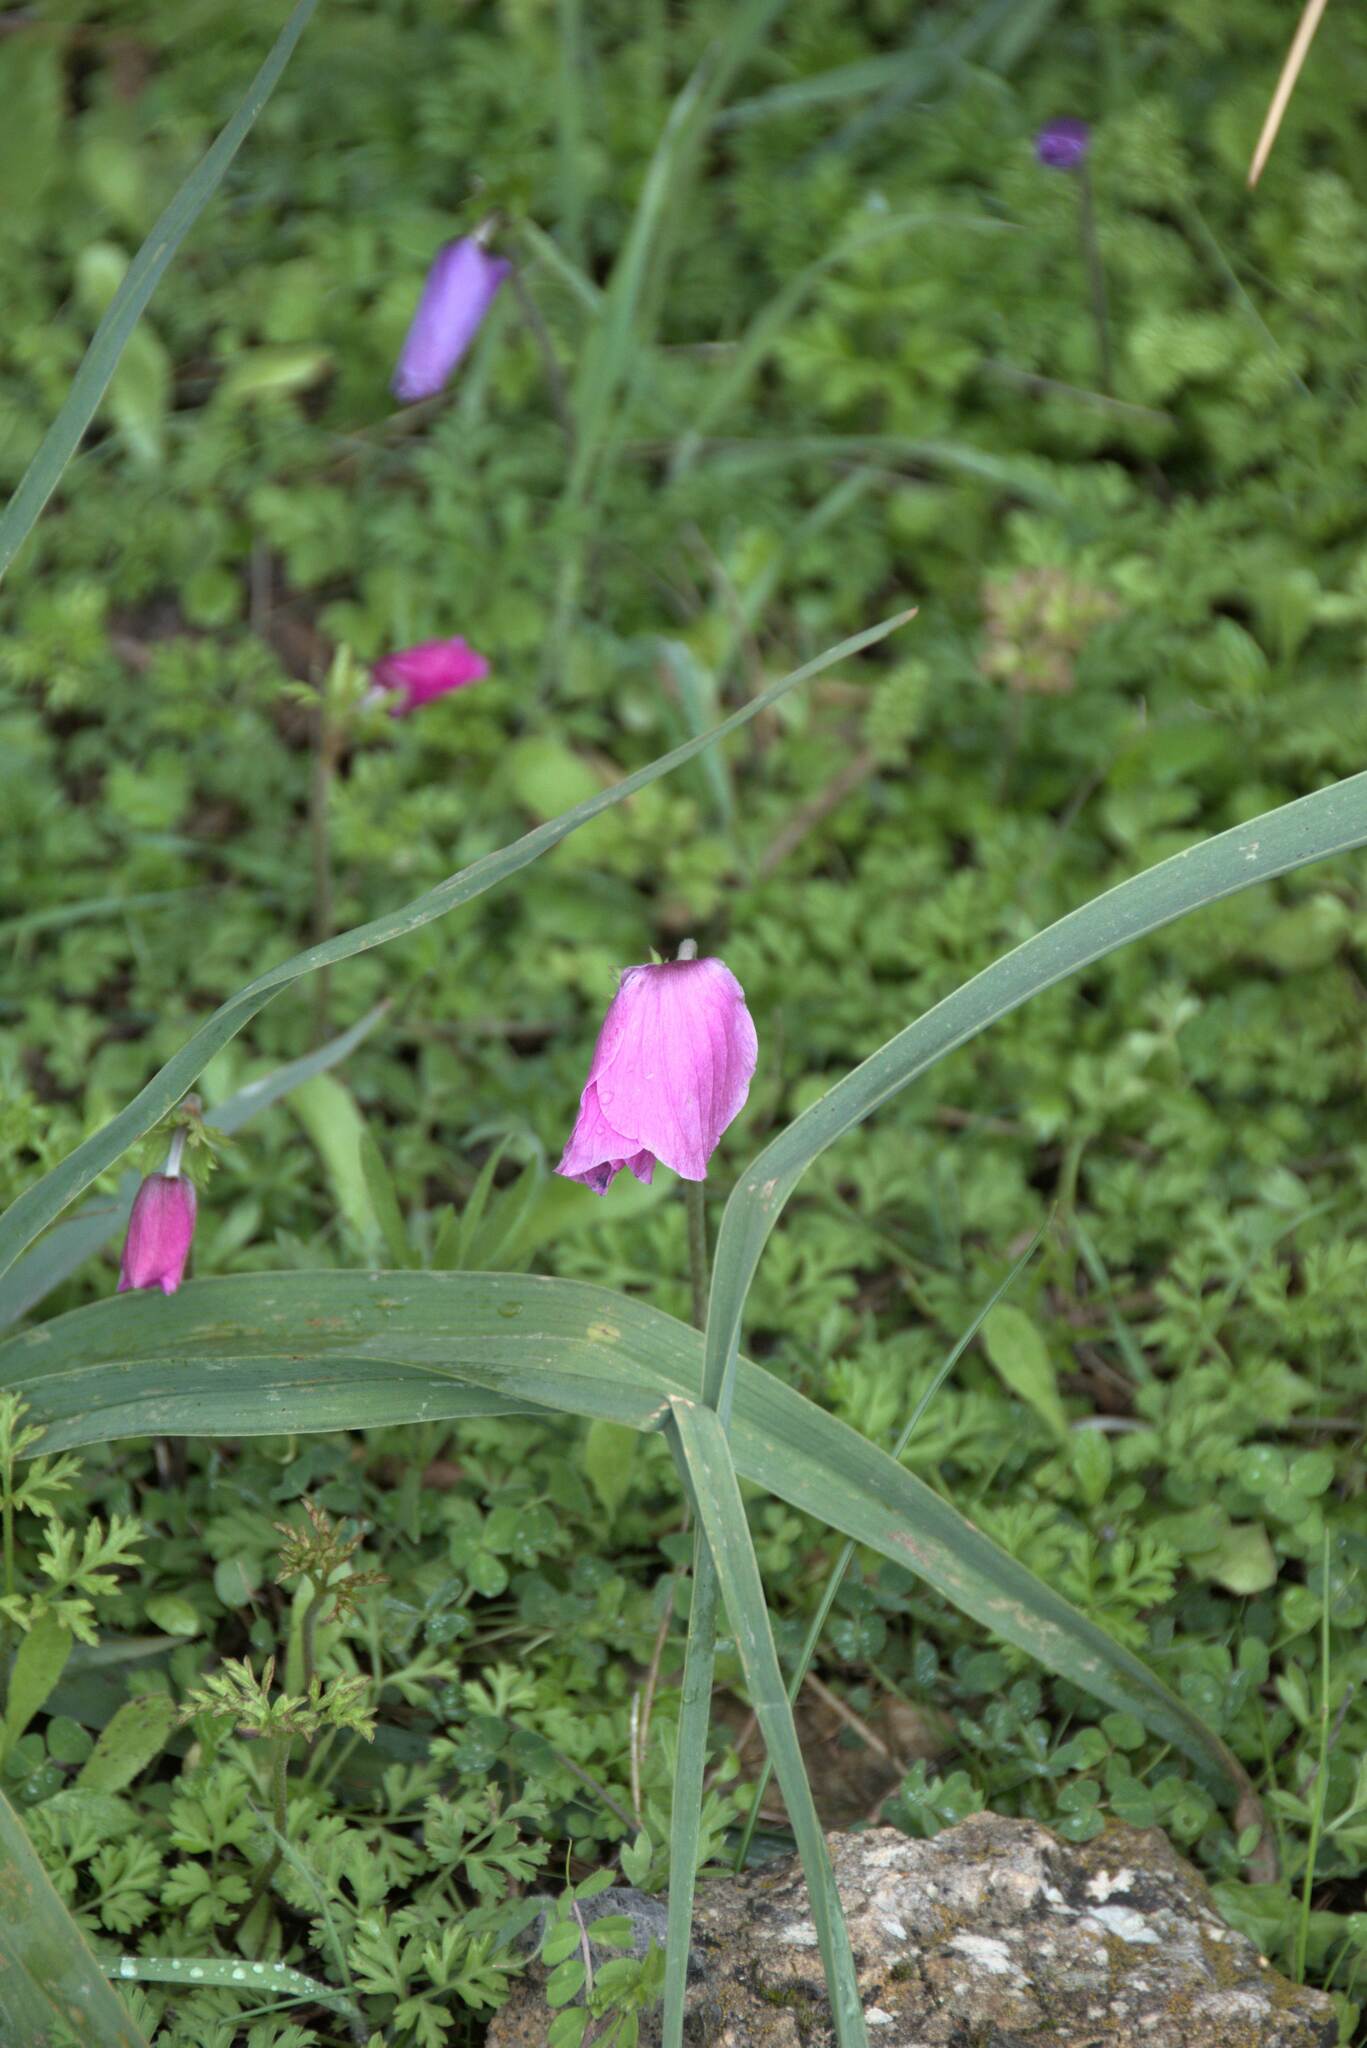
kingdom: Plantae
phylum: Tracheophyta
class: Magnoliopsida
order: Ranunculales
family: Ranunculaceae
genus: Anemone
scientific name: Anemone coronaria
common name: Poppy anemone
